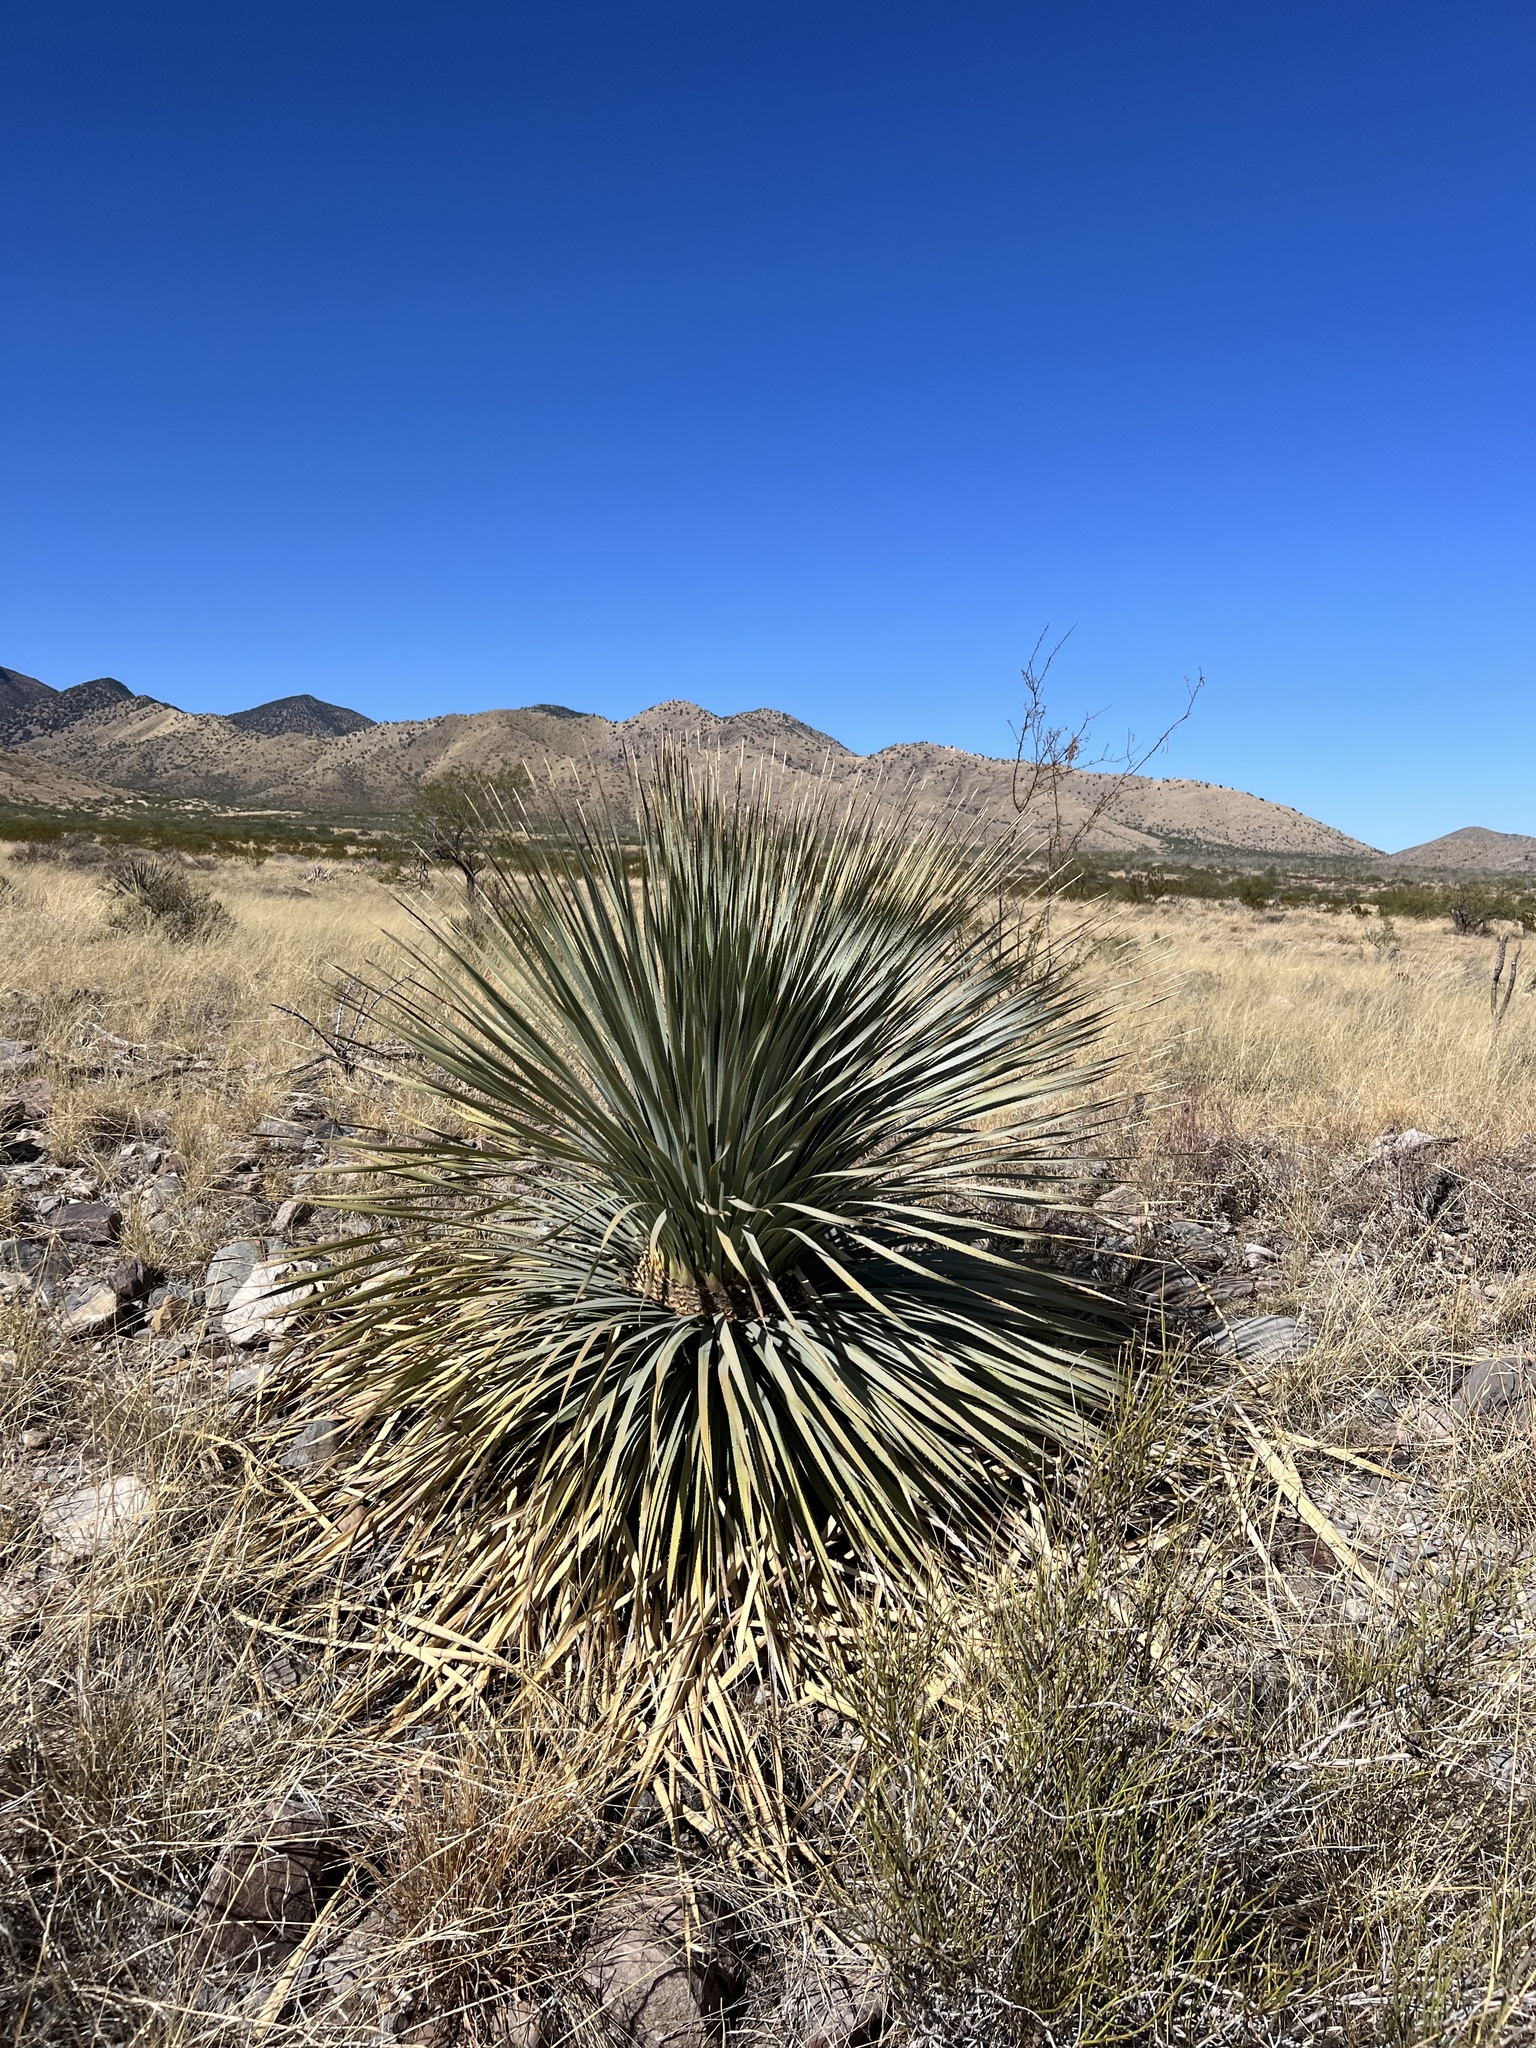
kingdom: Plantae
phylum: Tracheophyta
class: Liliopsida
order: Asparagales
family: Asparagaceae
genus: Dasylirion
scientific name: Dasylirion wheeleri
